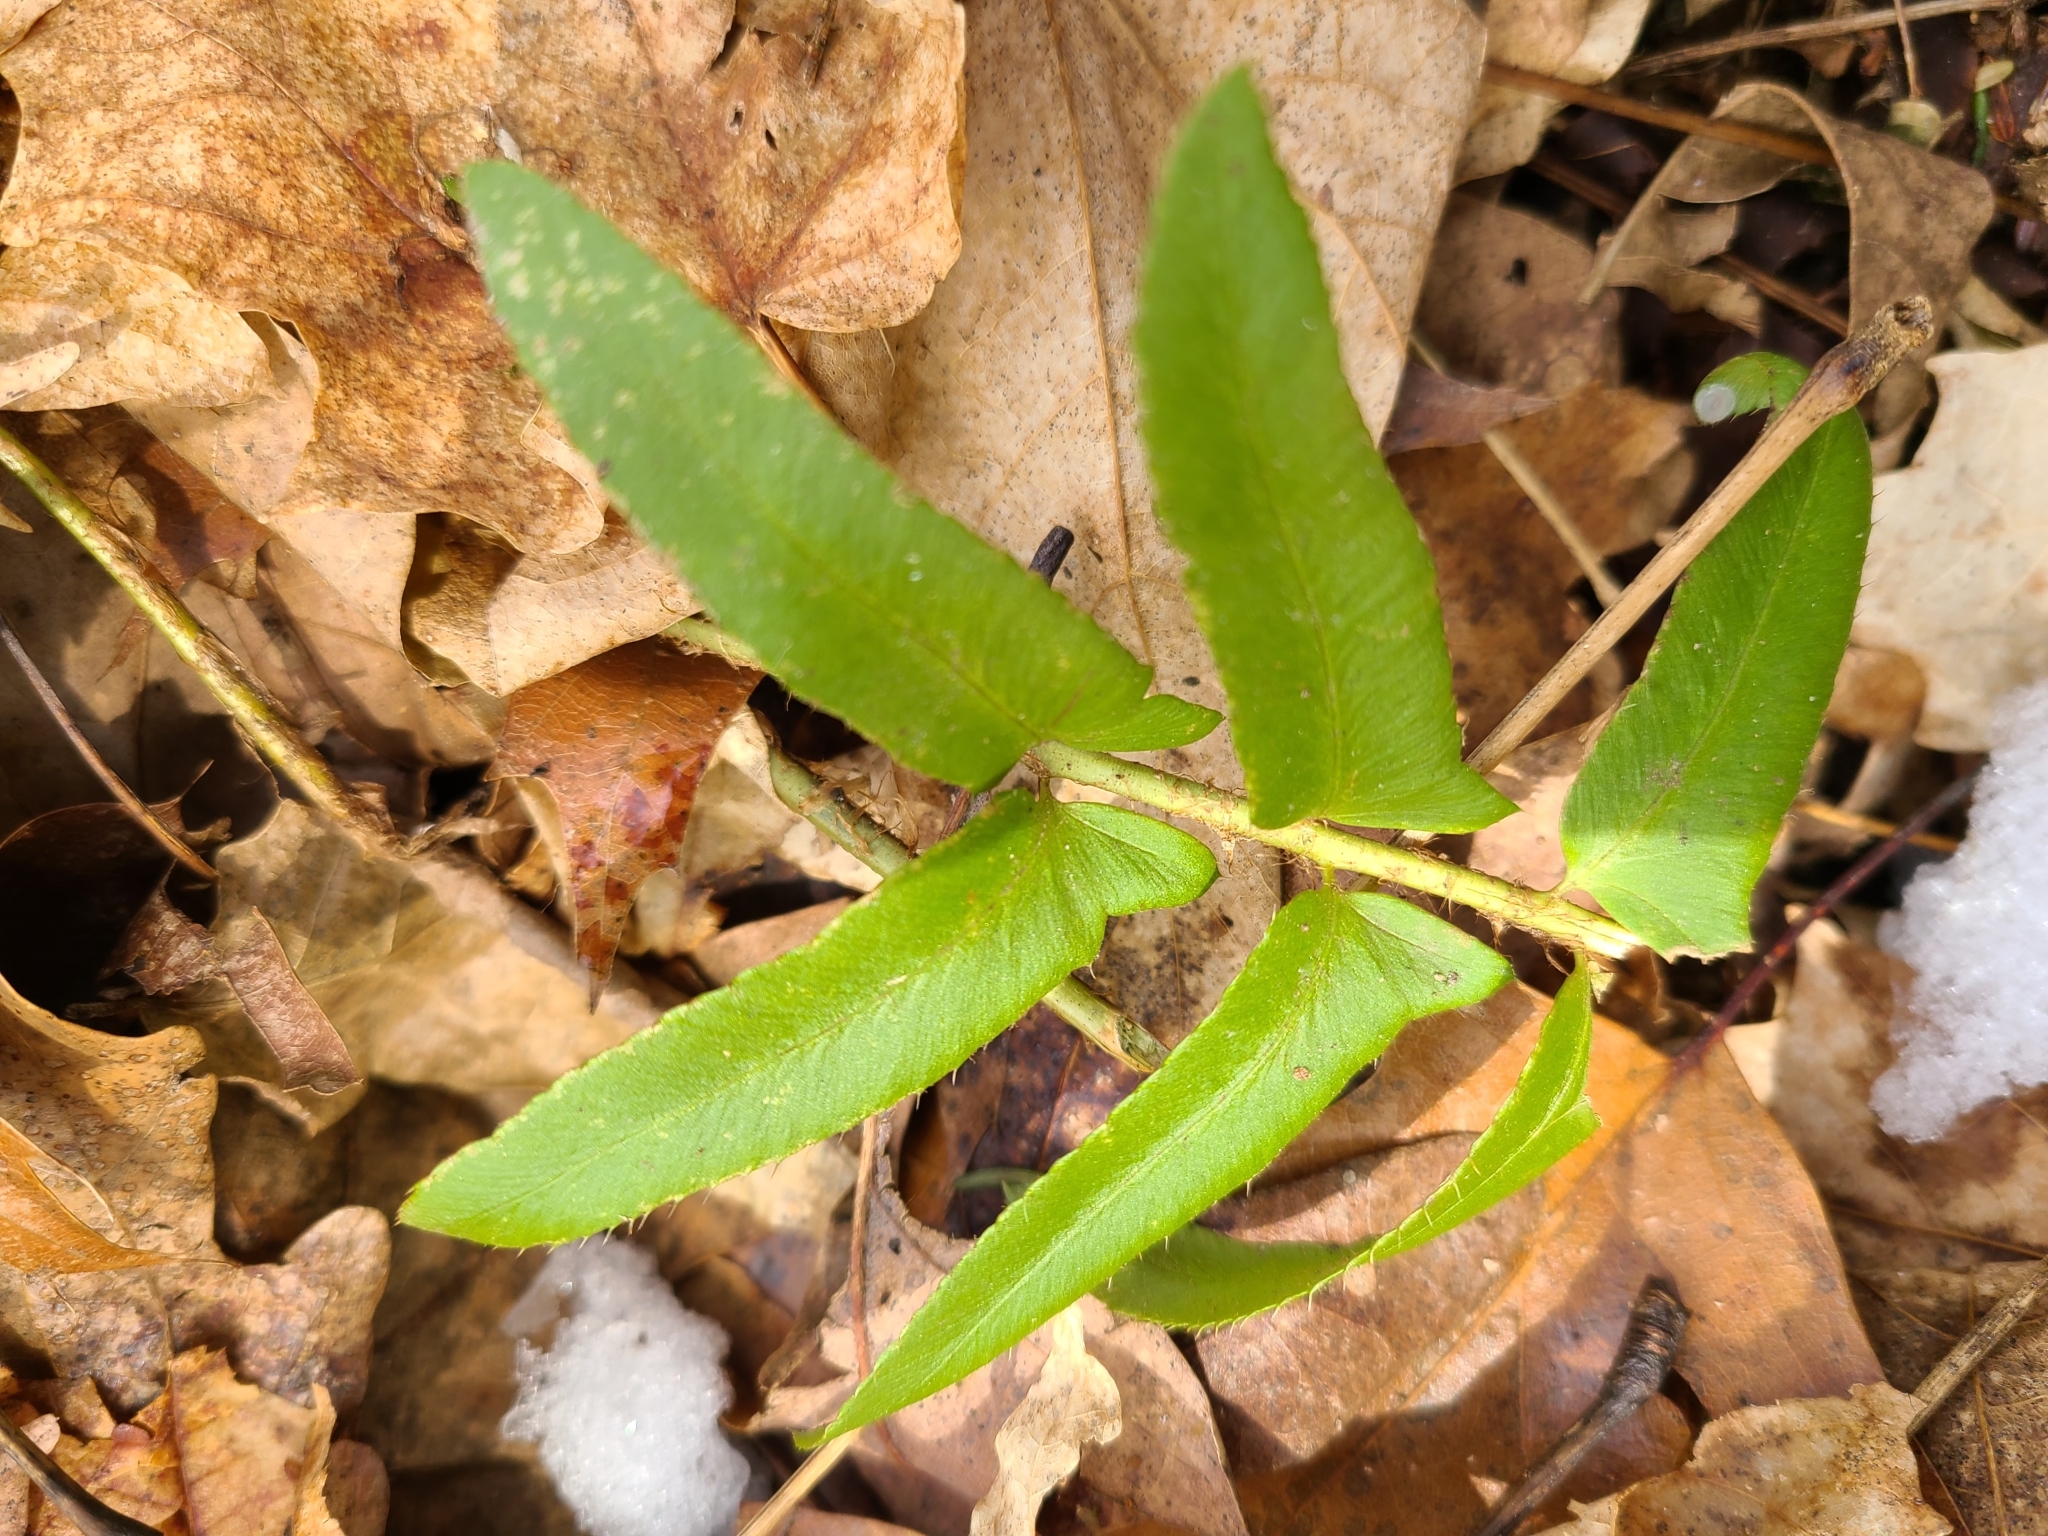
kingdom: Plantae
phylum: Tracheophyta
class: Polypodiopsida
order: Polypodiales
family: Dryopteridaceae
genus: Polystichum
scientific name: Polystichum acrostichoides
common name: Christmas fern
